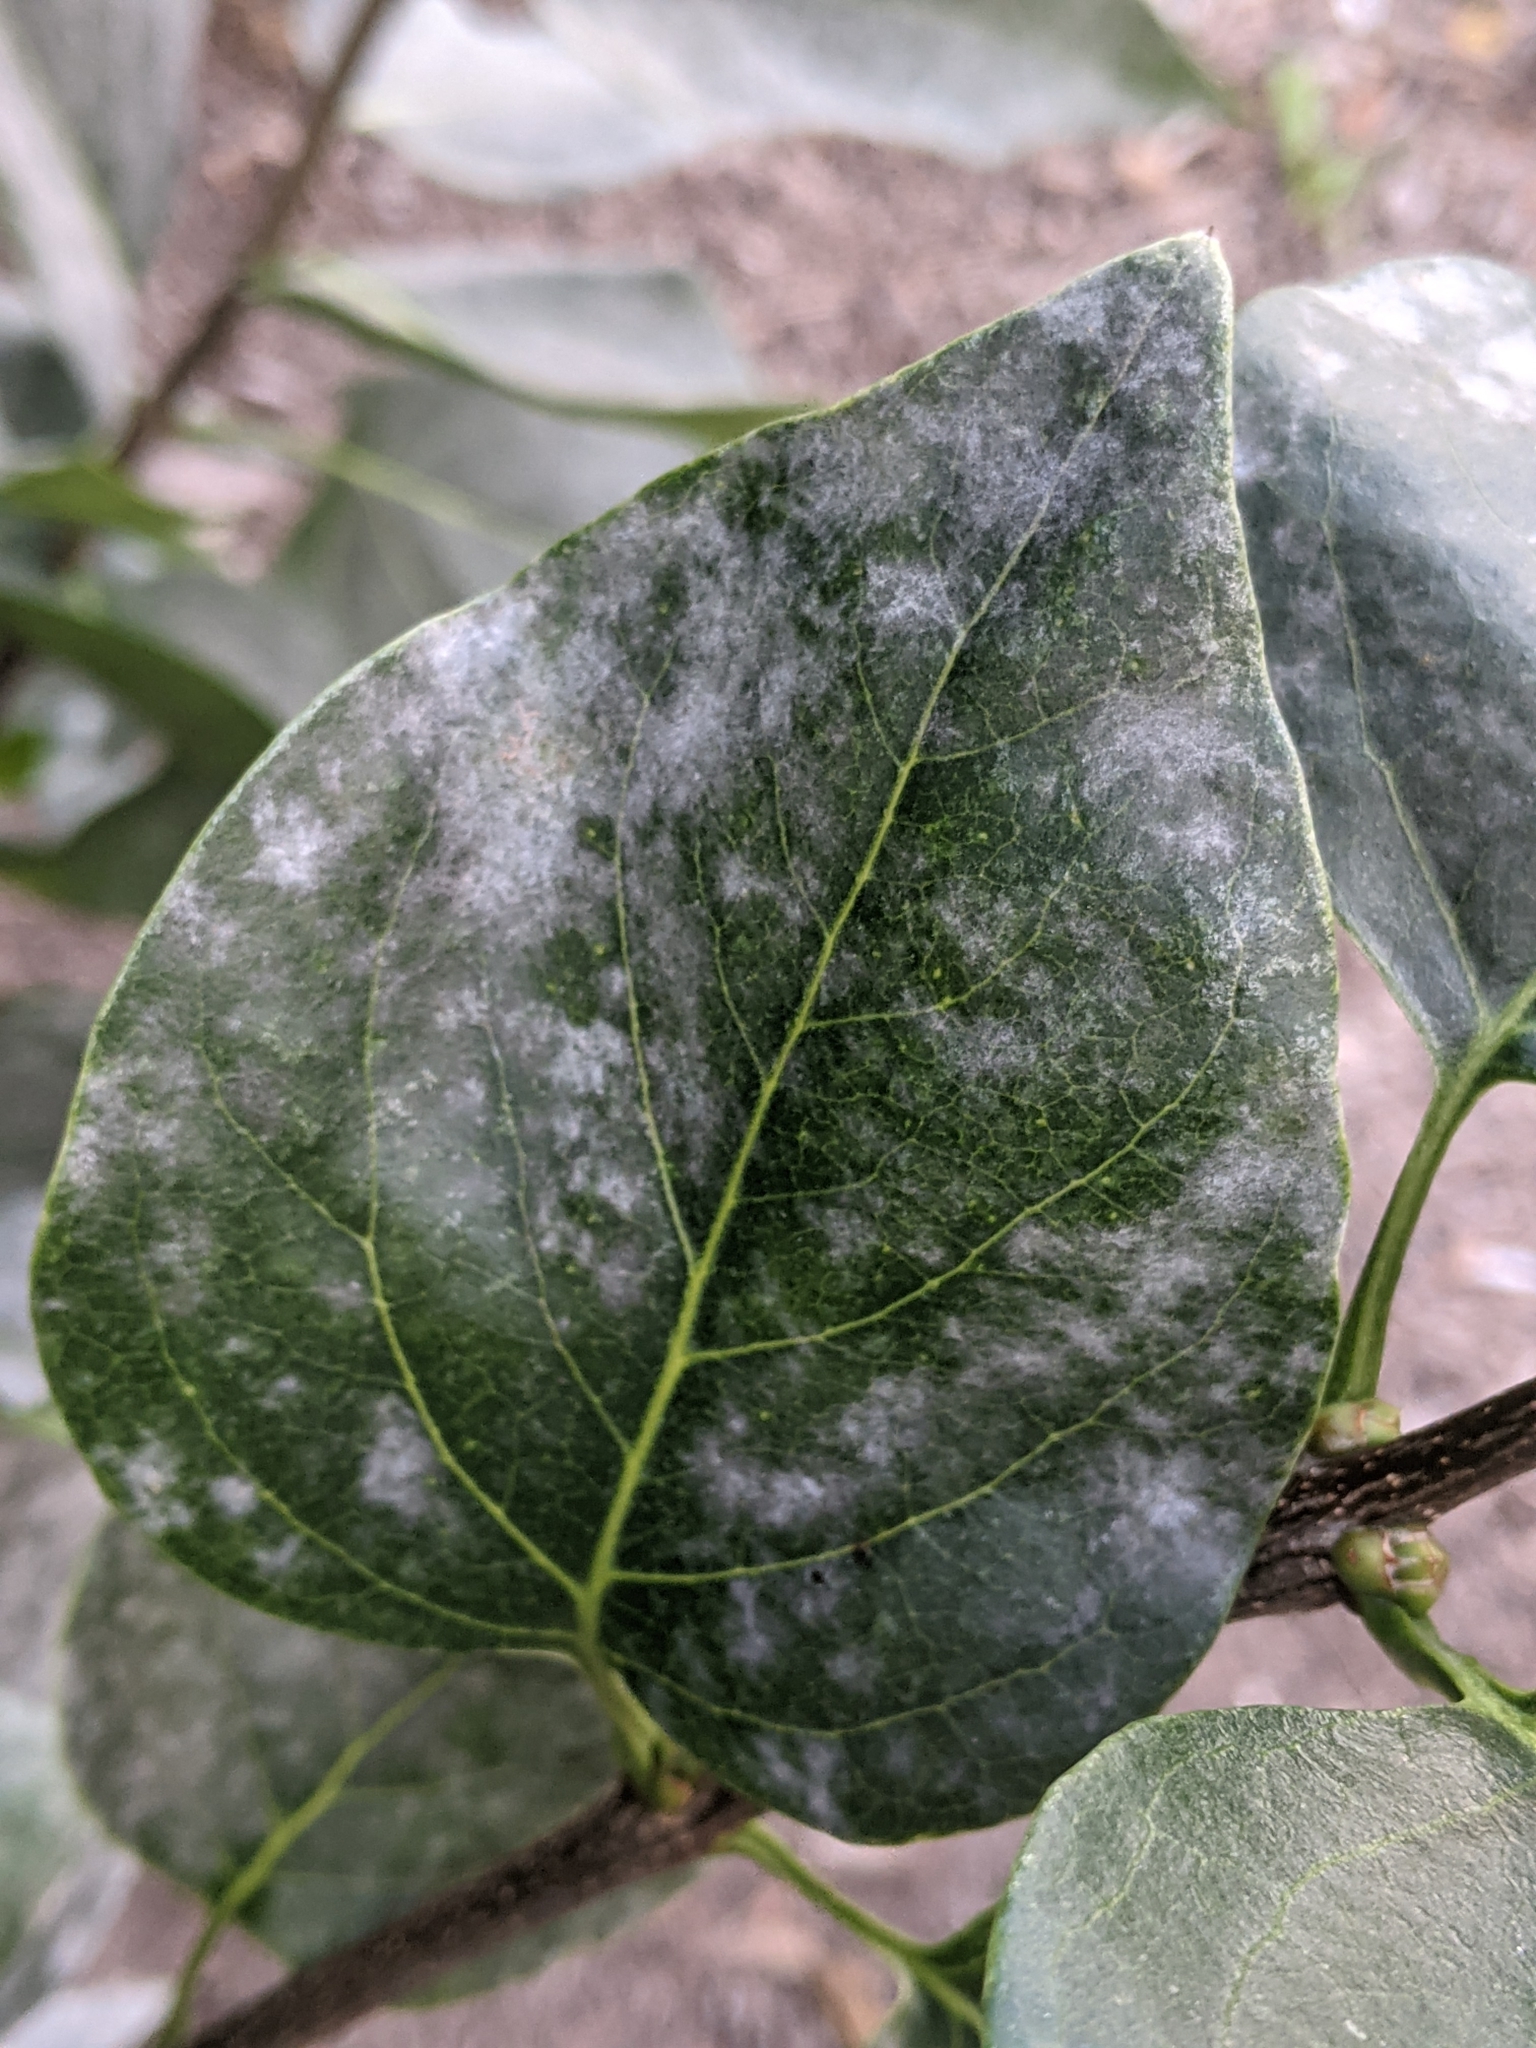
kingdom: Fungi
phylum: Ascomycota
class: Leotiomycetes
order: Helotiales
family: Erysiphaceae
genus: Erysiphe
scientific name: Erysiphe syringae
